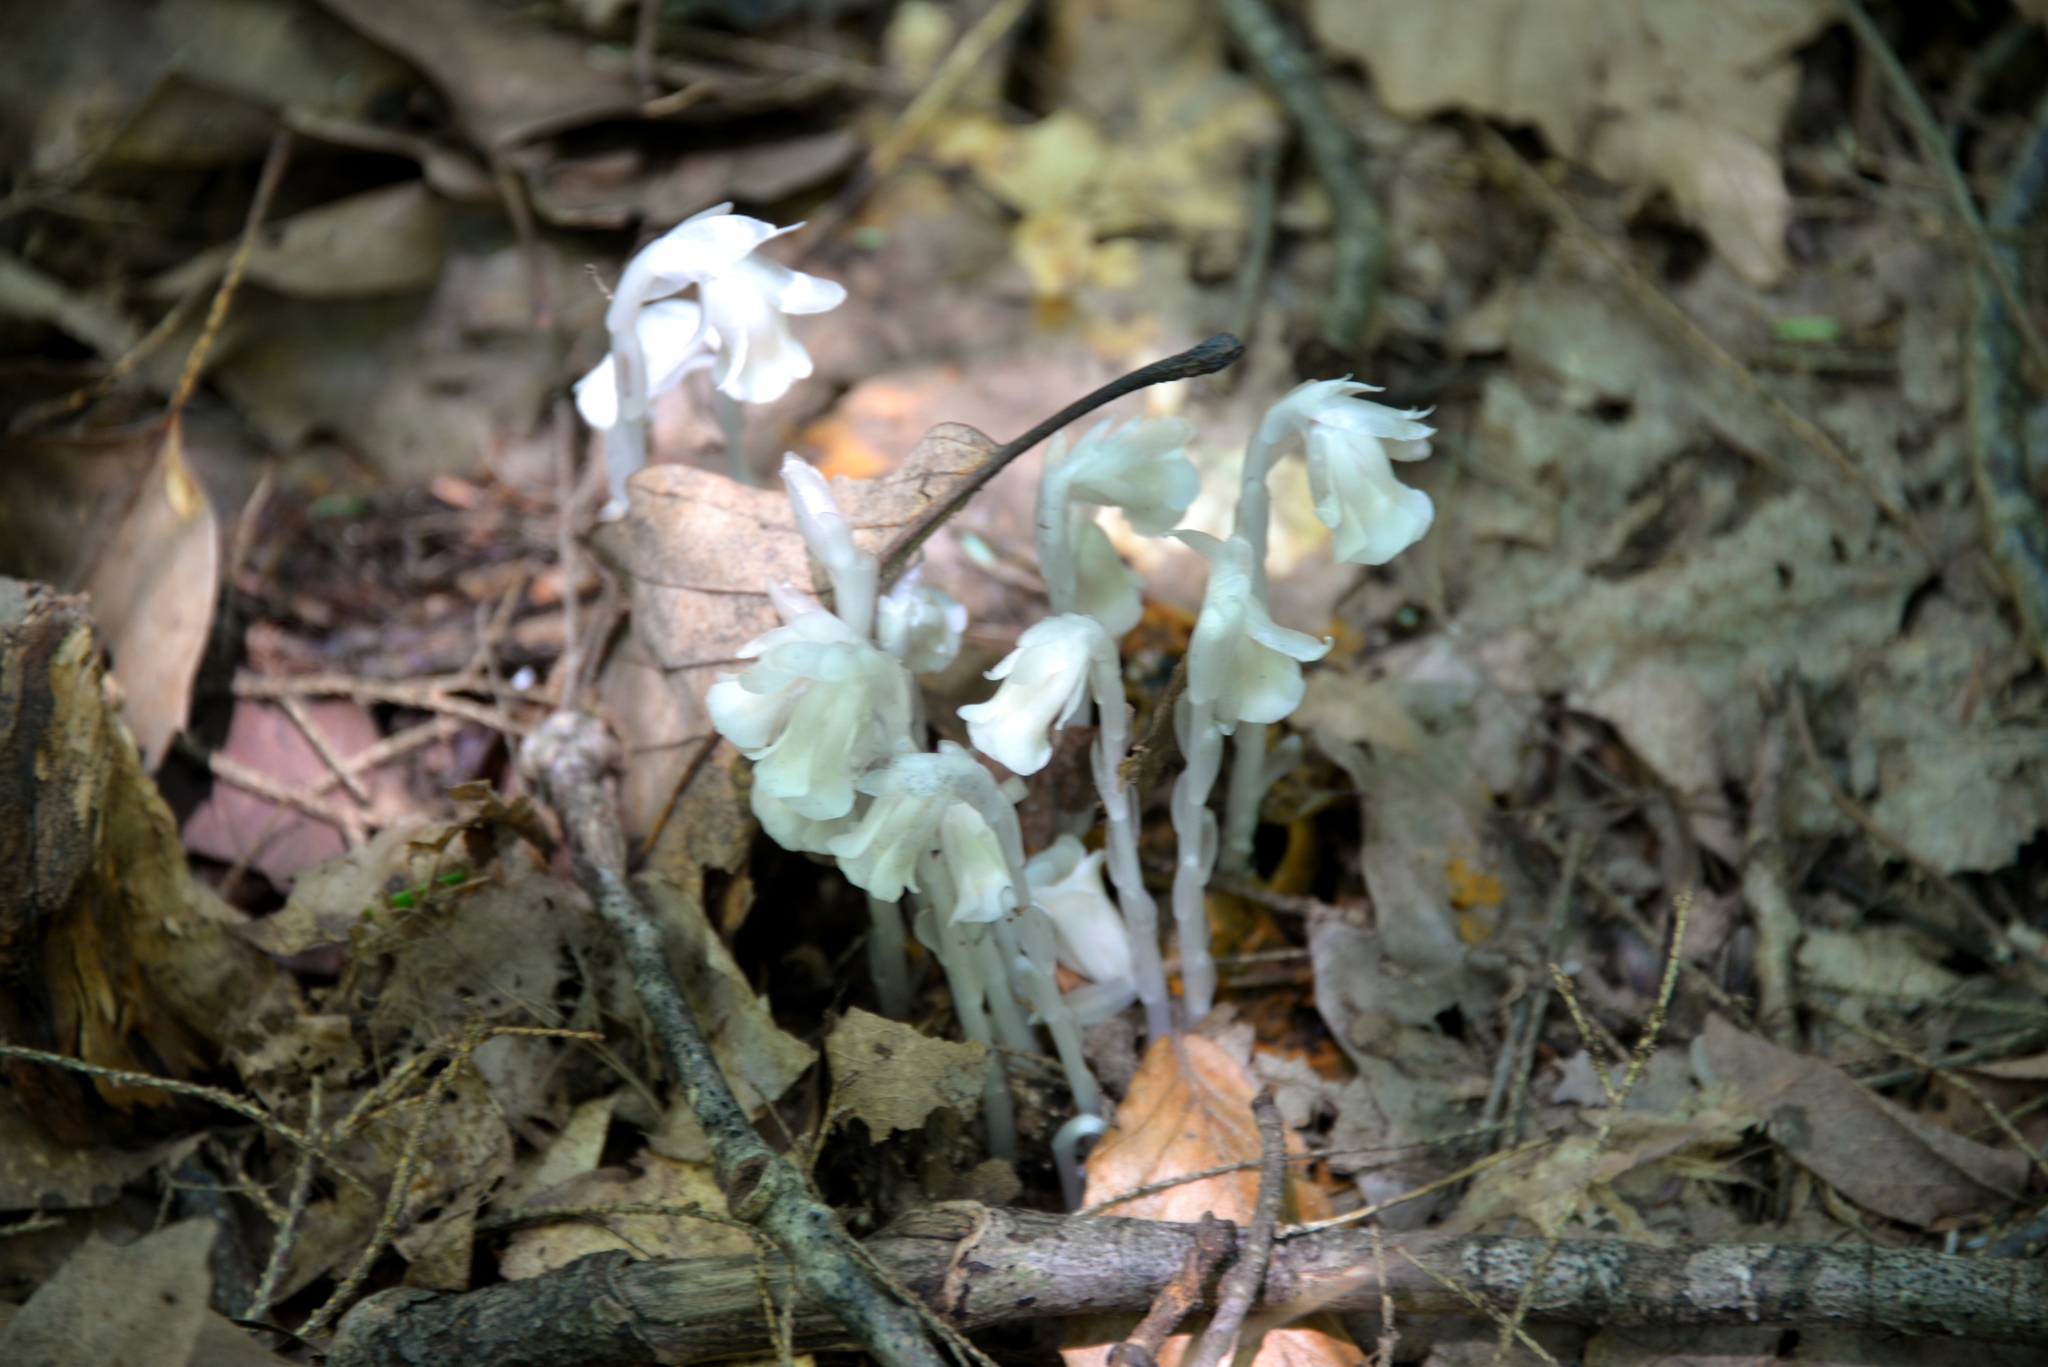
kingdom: Plantae
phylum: Tracheophyta
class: Magnoliopsida
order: Ericales
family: Ericaceae
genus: Monotropa
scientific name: Monotropa uniflora
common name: Convulsion root
